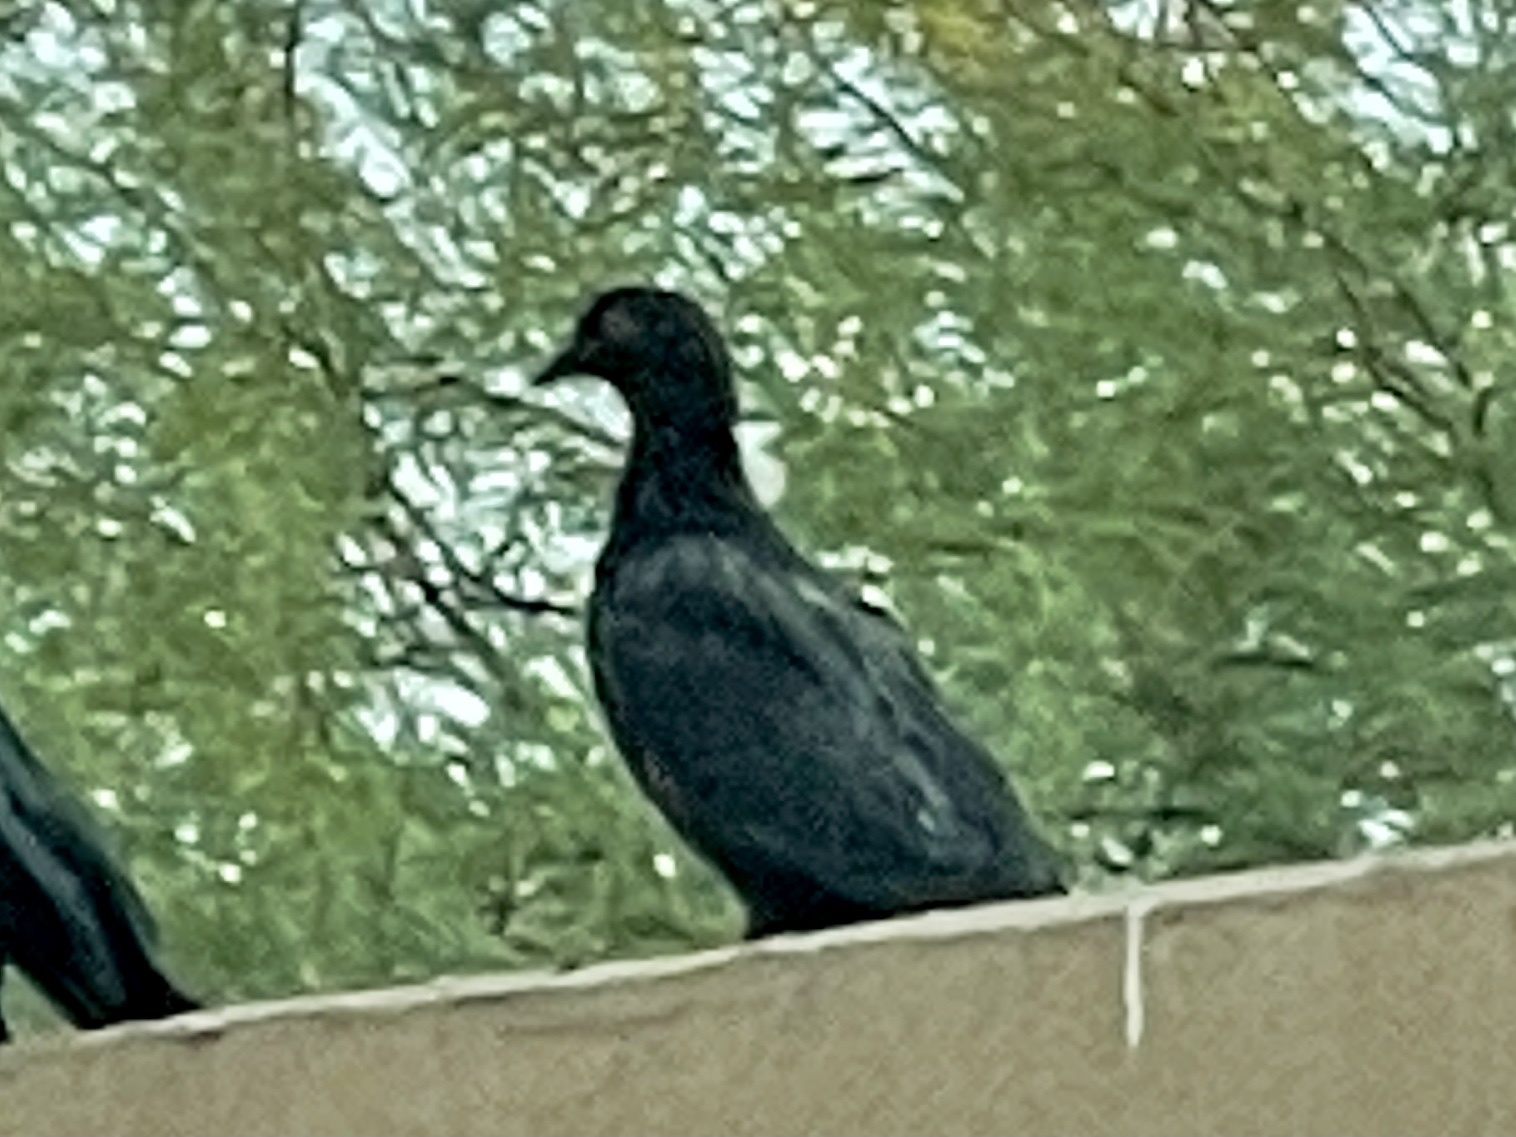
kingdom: Animalia
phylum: Chordata
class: Aves
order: Columbiformes
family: Columbidae
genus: Columba
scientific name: Columba livia
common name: Rock pigeon
